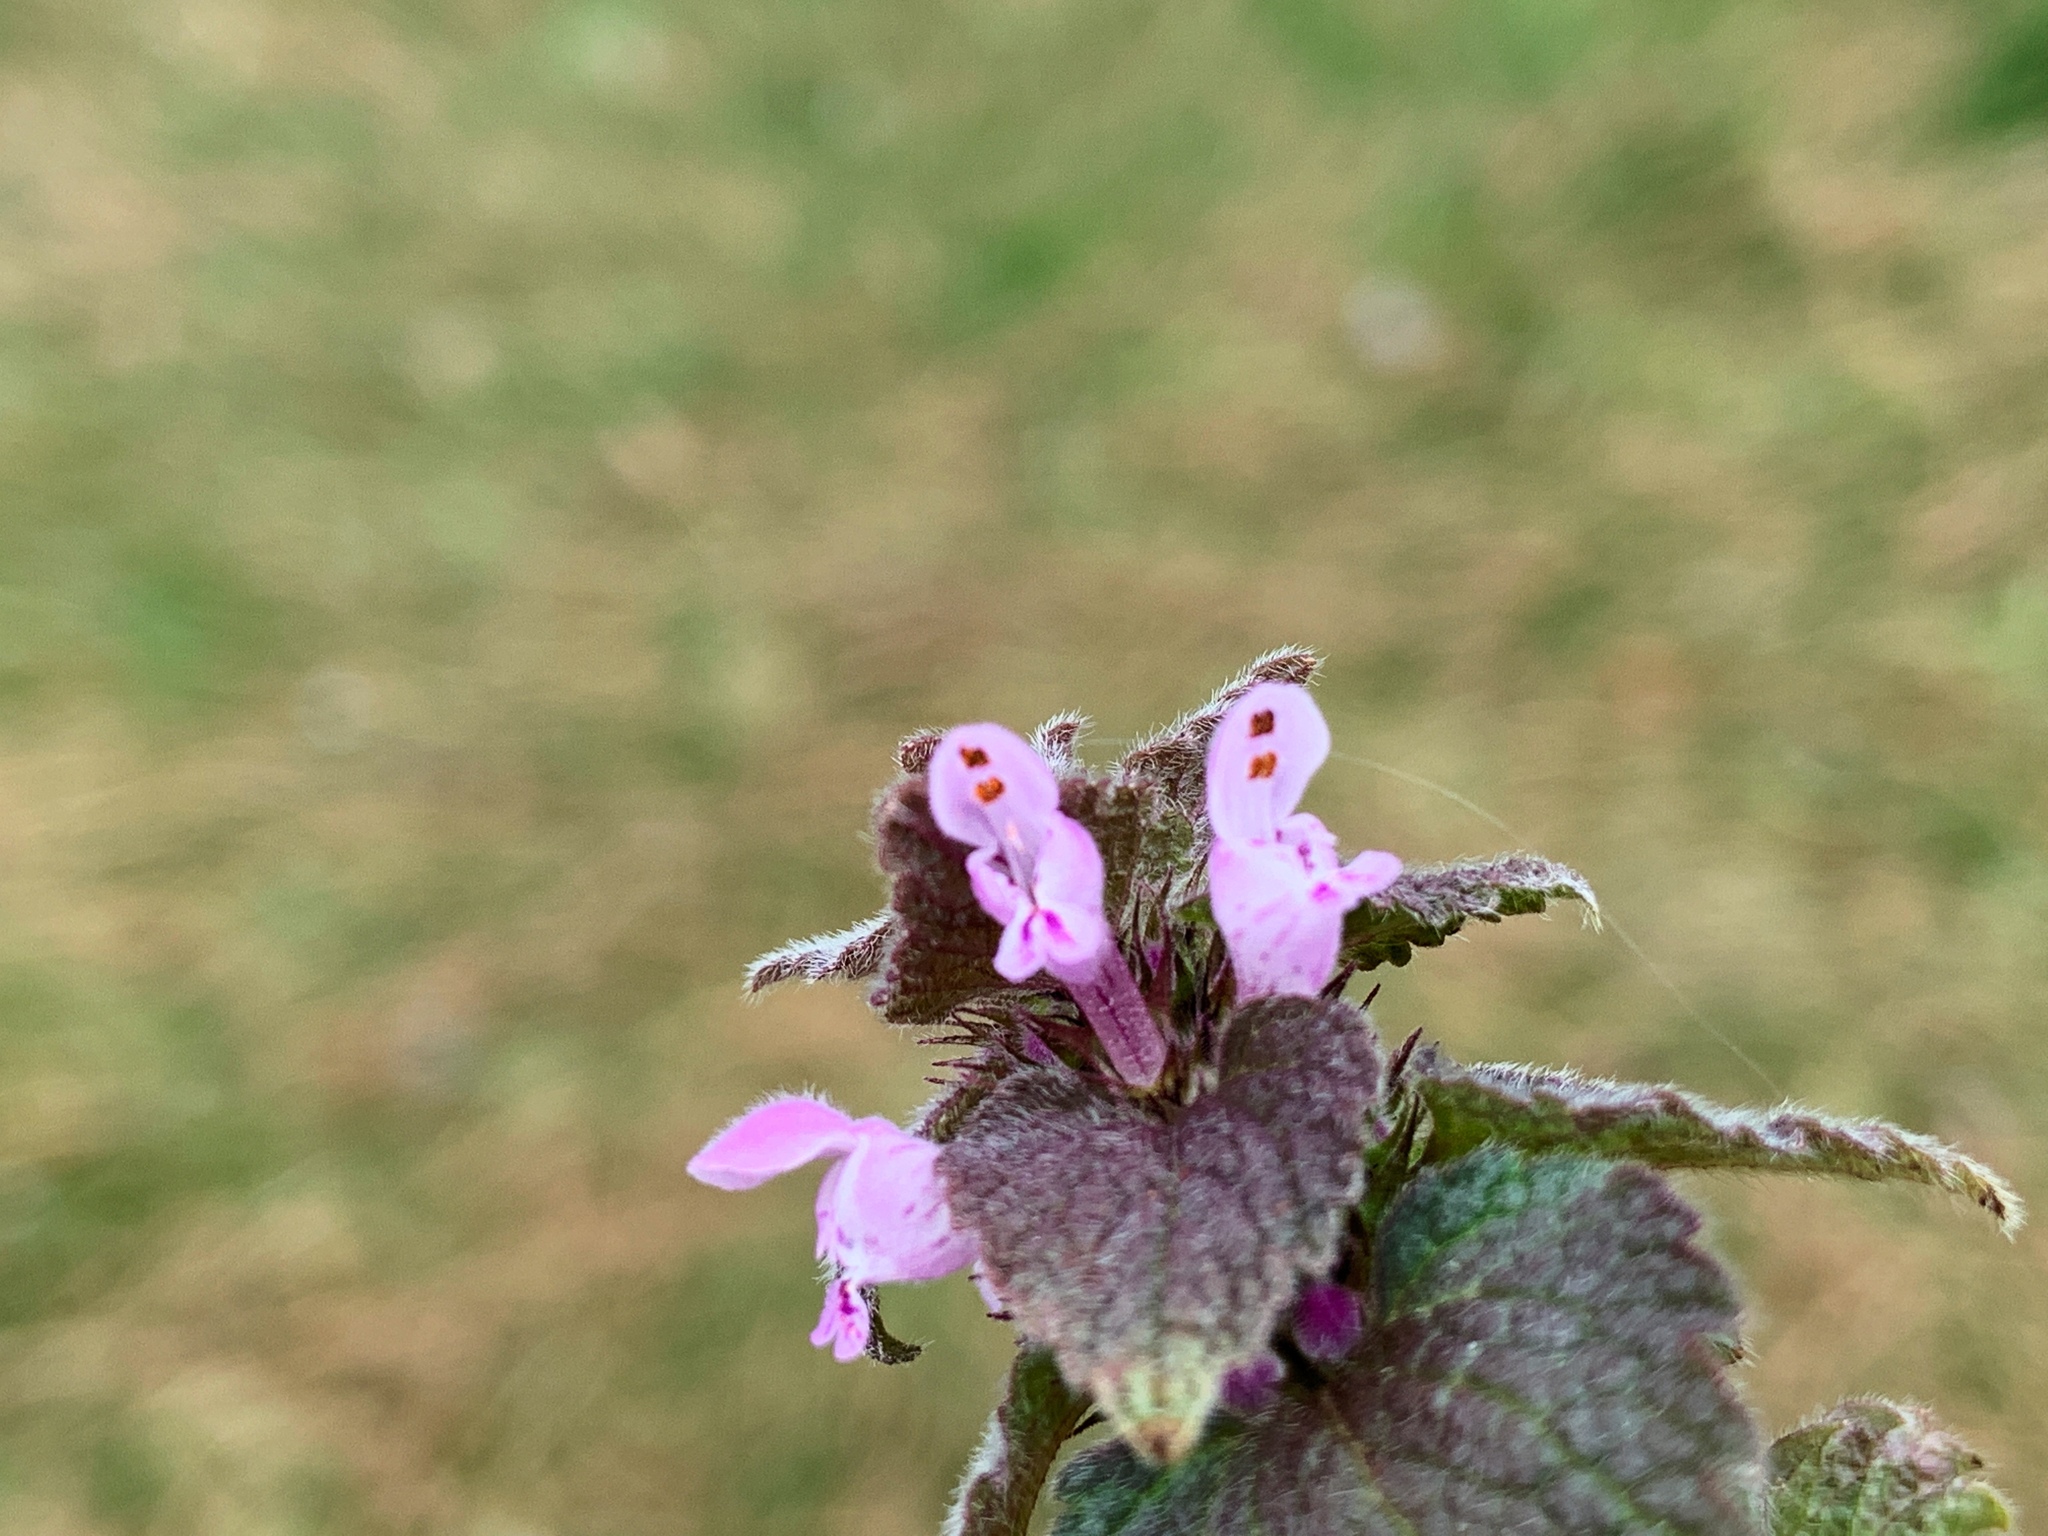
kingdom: Plantae
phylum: Tracheophyta
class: Magnoliopsida
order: Lamiales
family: Lamiaceae
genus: Lamium
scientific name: Lamium purpureum
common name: Red dead-nettle
